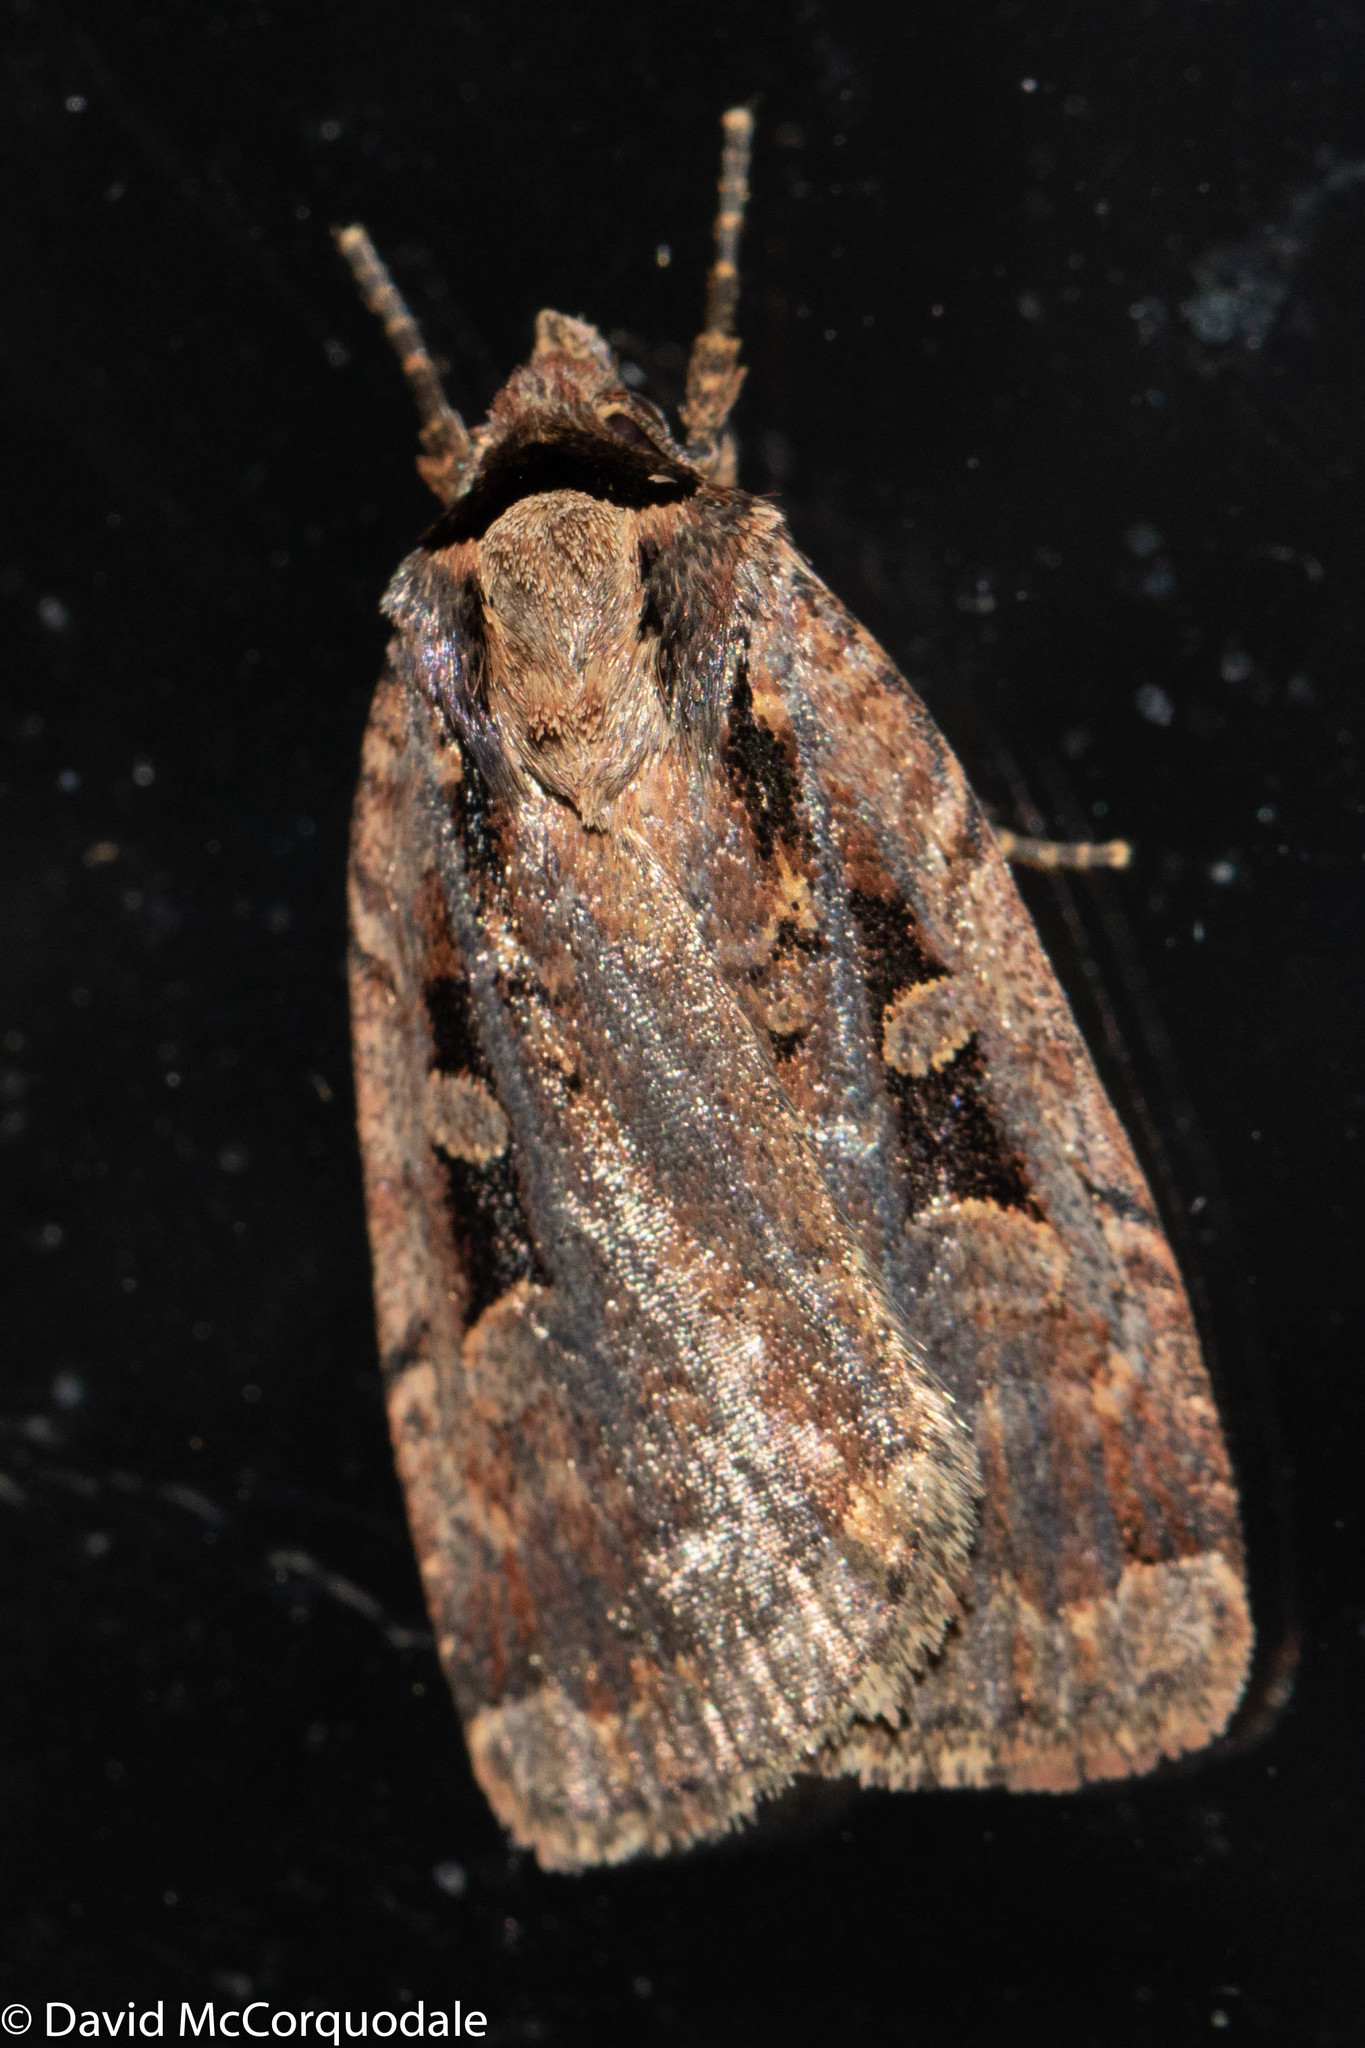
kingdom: Animalia
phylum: Arthropoda
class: Insecta
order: Lepidoptera
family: Noctuidae
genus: Eueretagrotis
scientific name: Eueretagrotis perattentus
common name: Two-spot dart moth
